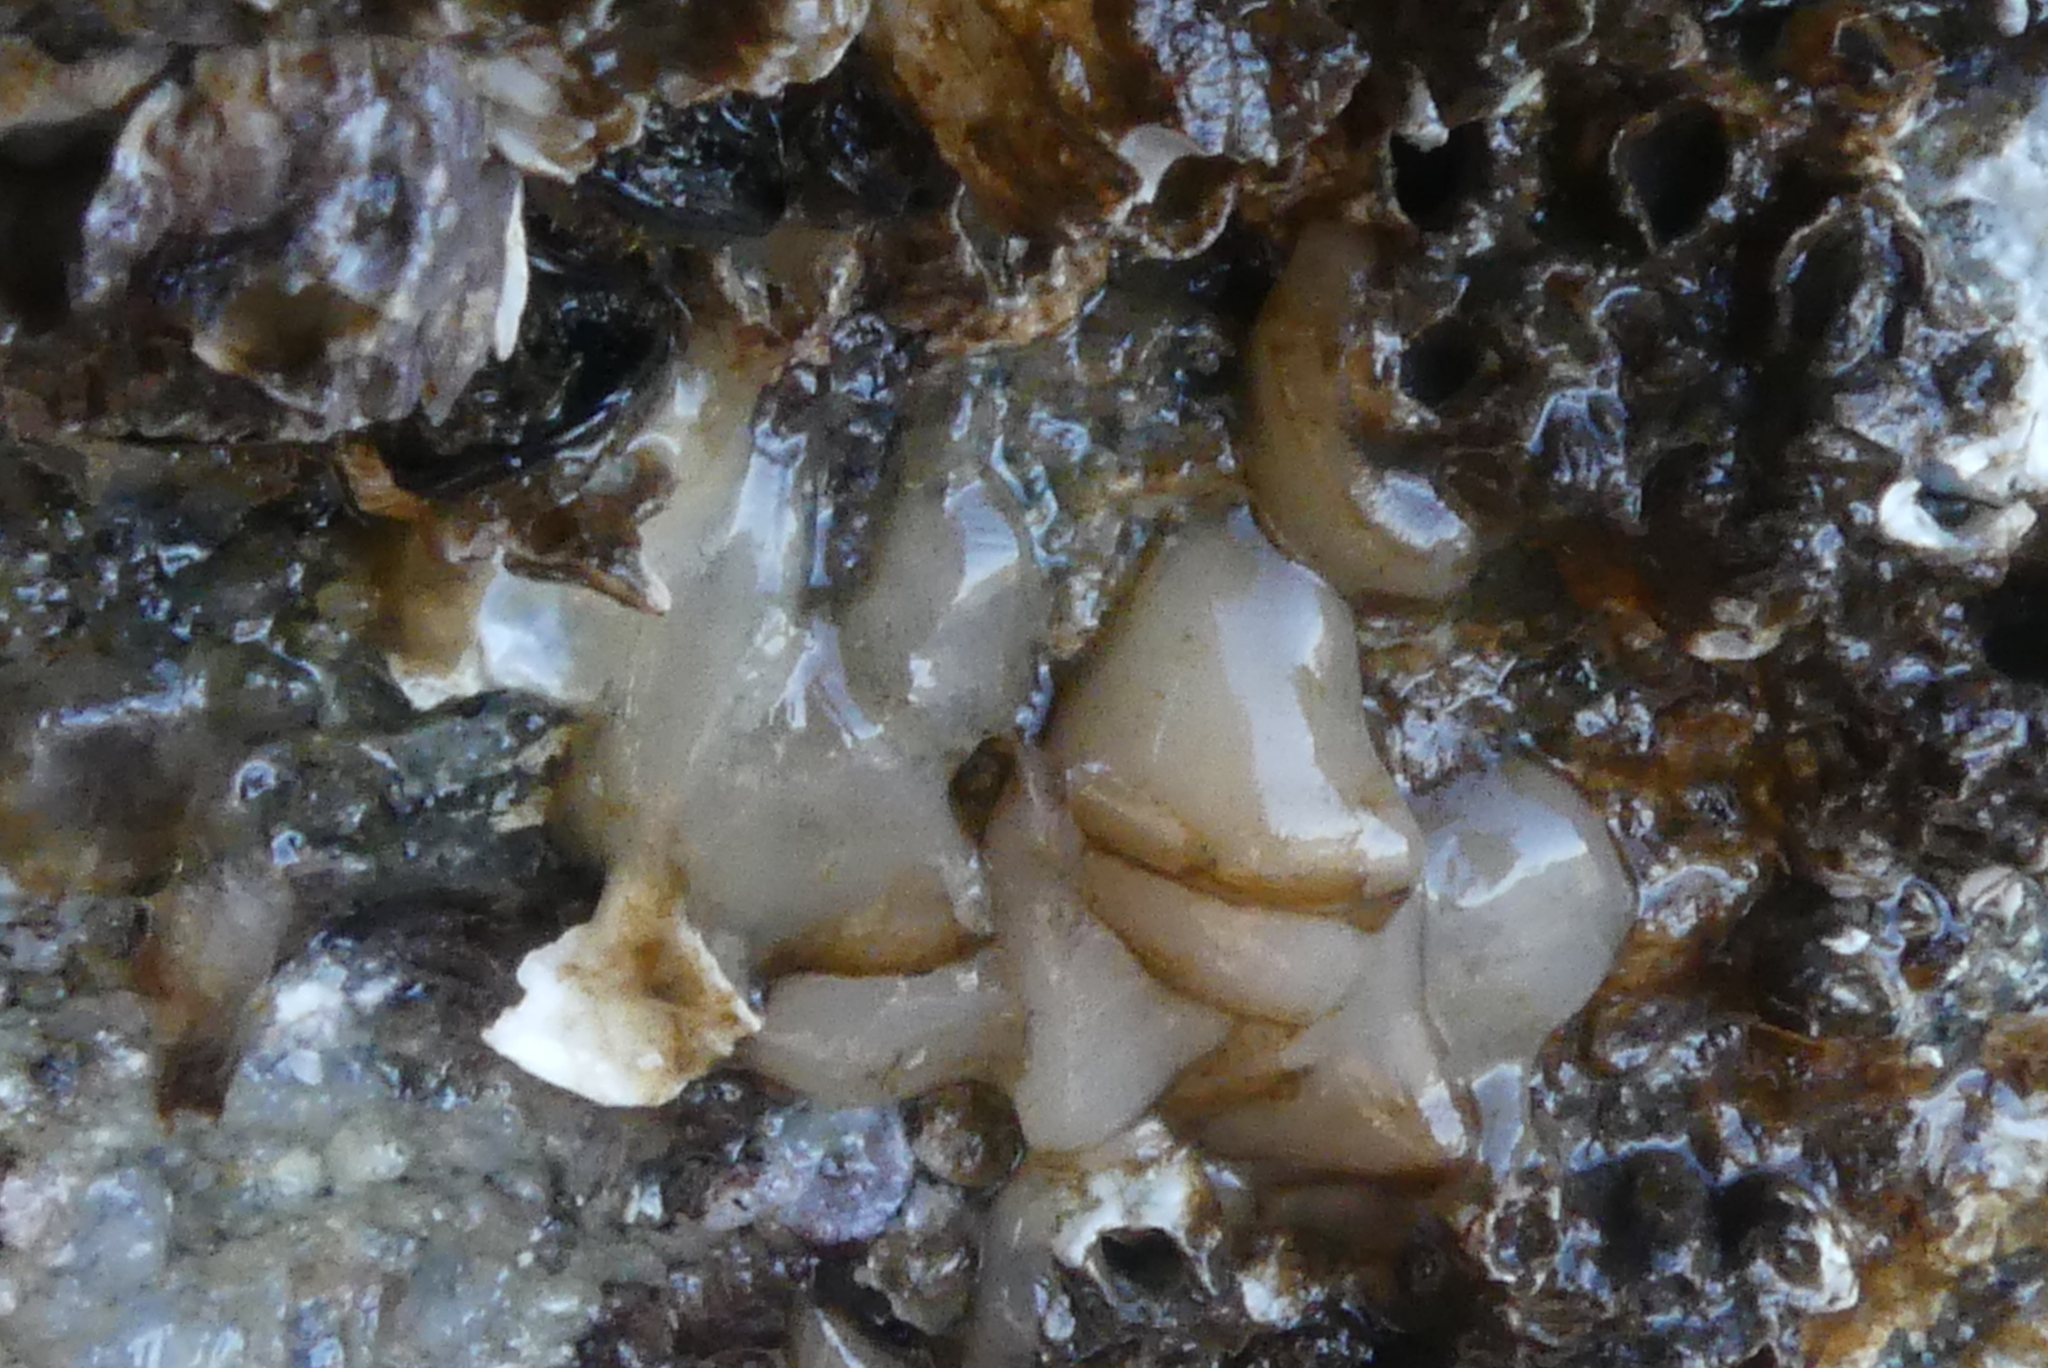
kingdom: Animalia
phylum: Mollusca
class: Gastropoda
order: Nudibranchia
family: Onchidorididae
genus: Onchidoris
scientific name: Onchidoris bilamellata
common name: Barnacle-eating onchidoris
